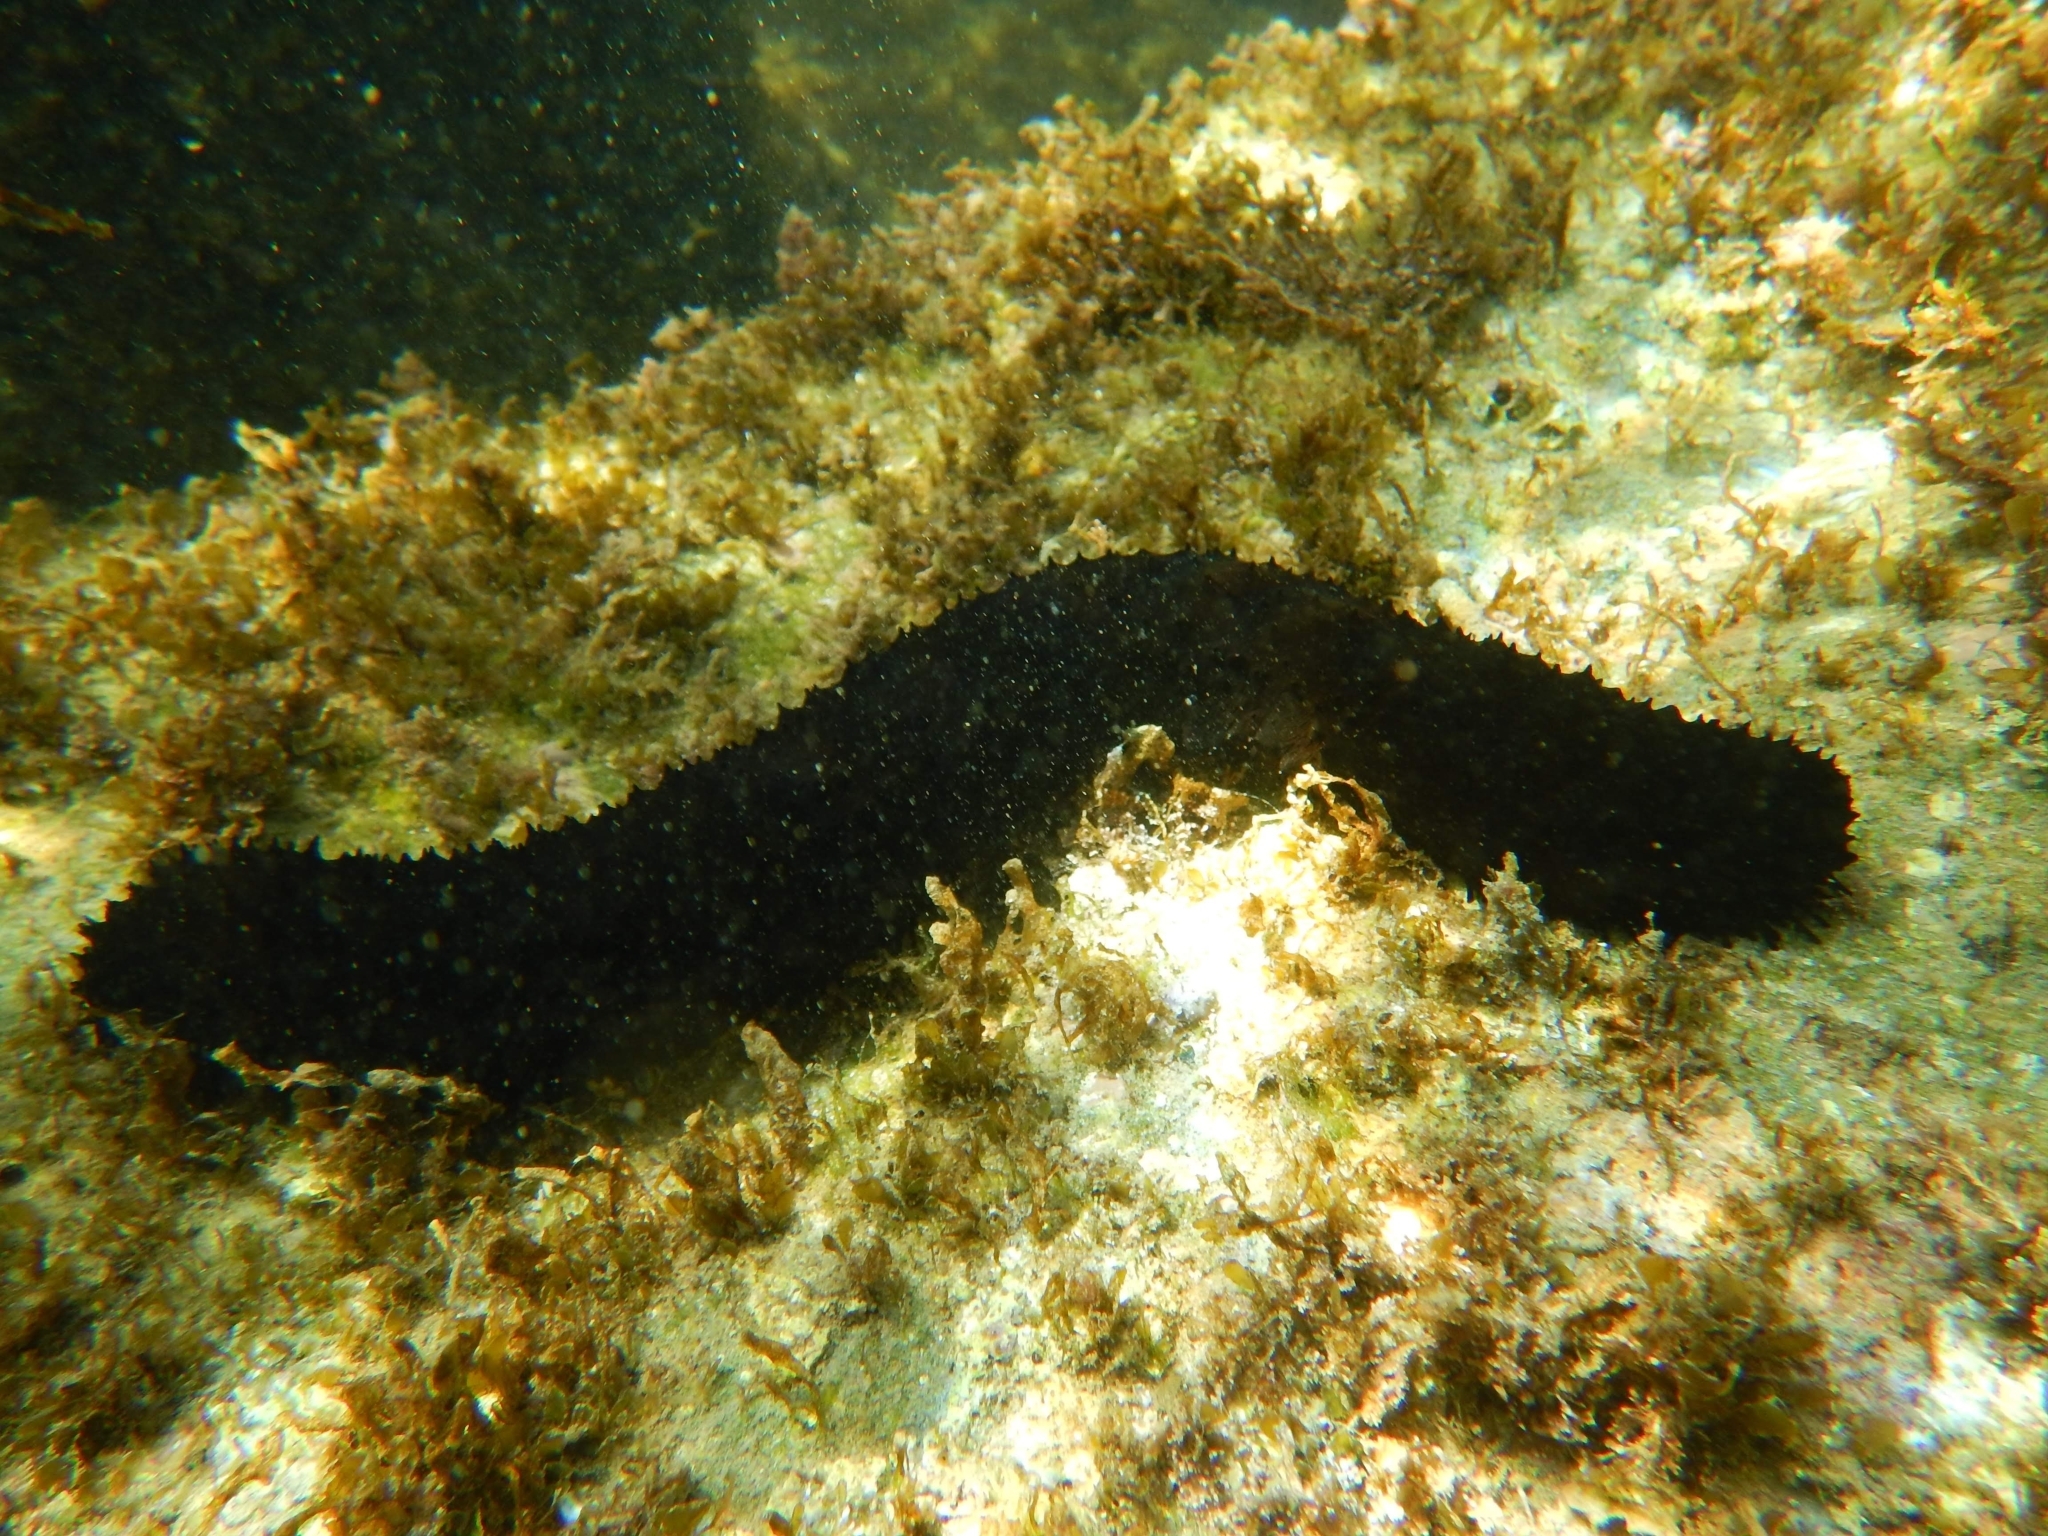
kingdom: Animalia
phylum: Echinodermata
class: Holothuroidea
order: Holothuriida
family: Holothuriidae
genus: Holothuria
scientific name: Holothuria forskali
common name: Black sea cucumber
